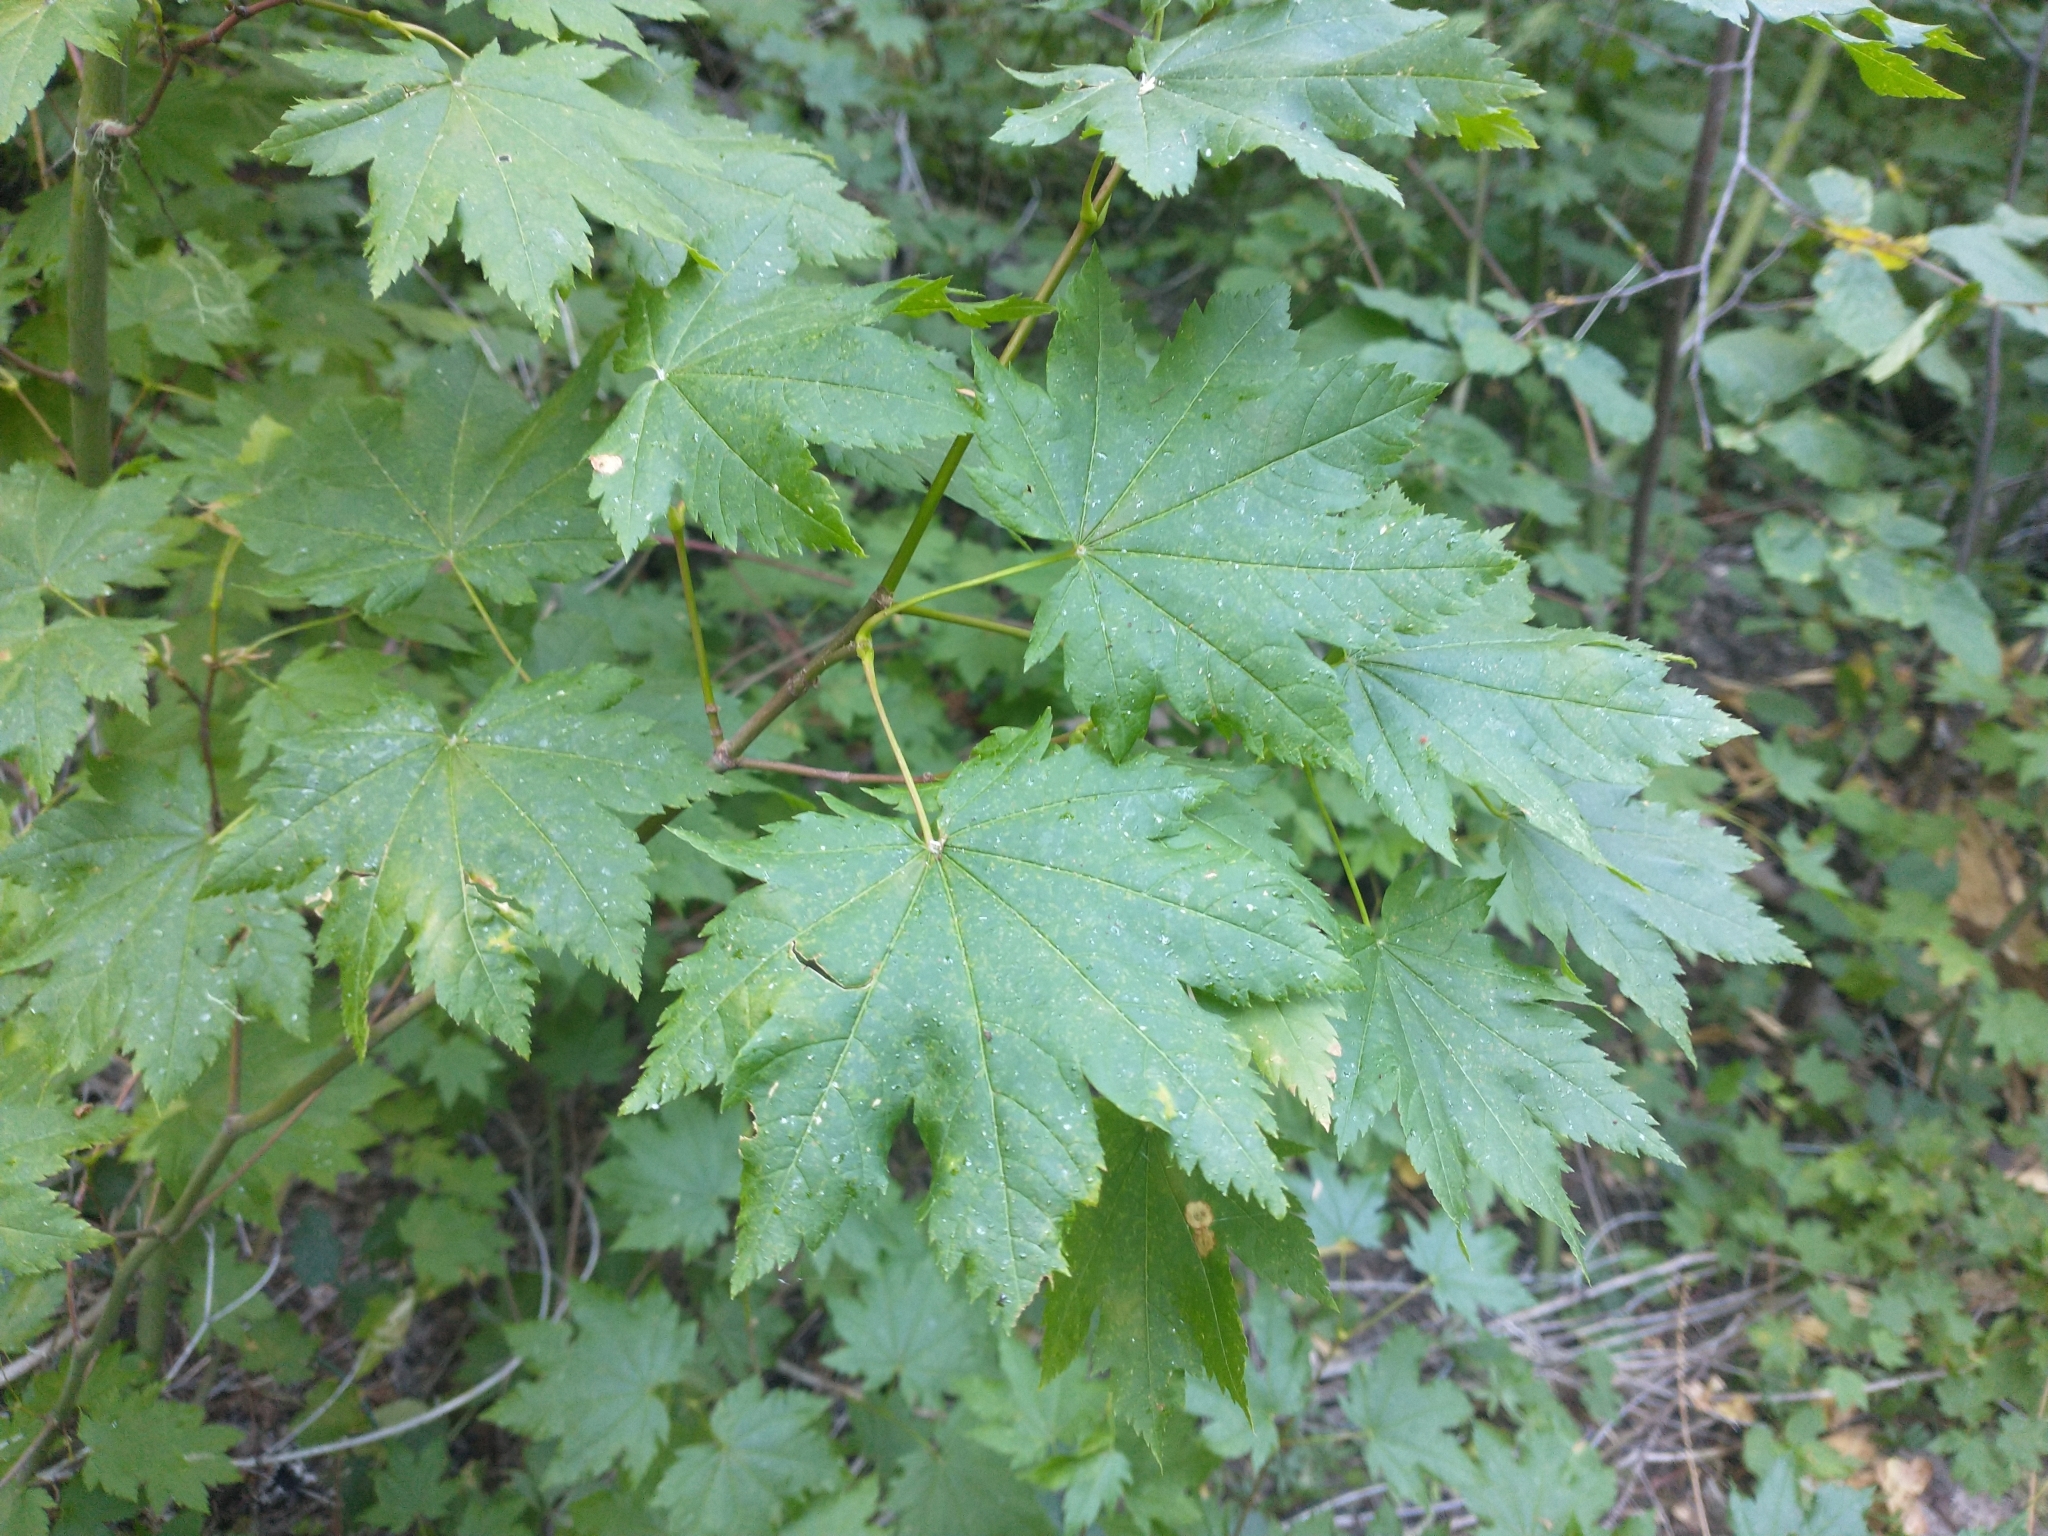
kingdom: Plantae
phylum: Tracheophyta
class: Magnoliopsida
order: Sapindales
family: Sapindaceae
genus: Acer
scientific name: Acer circinatum
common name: Vine maple
